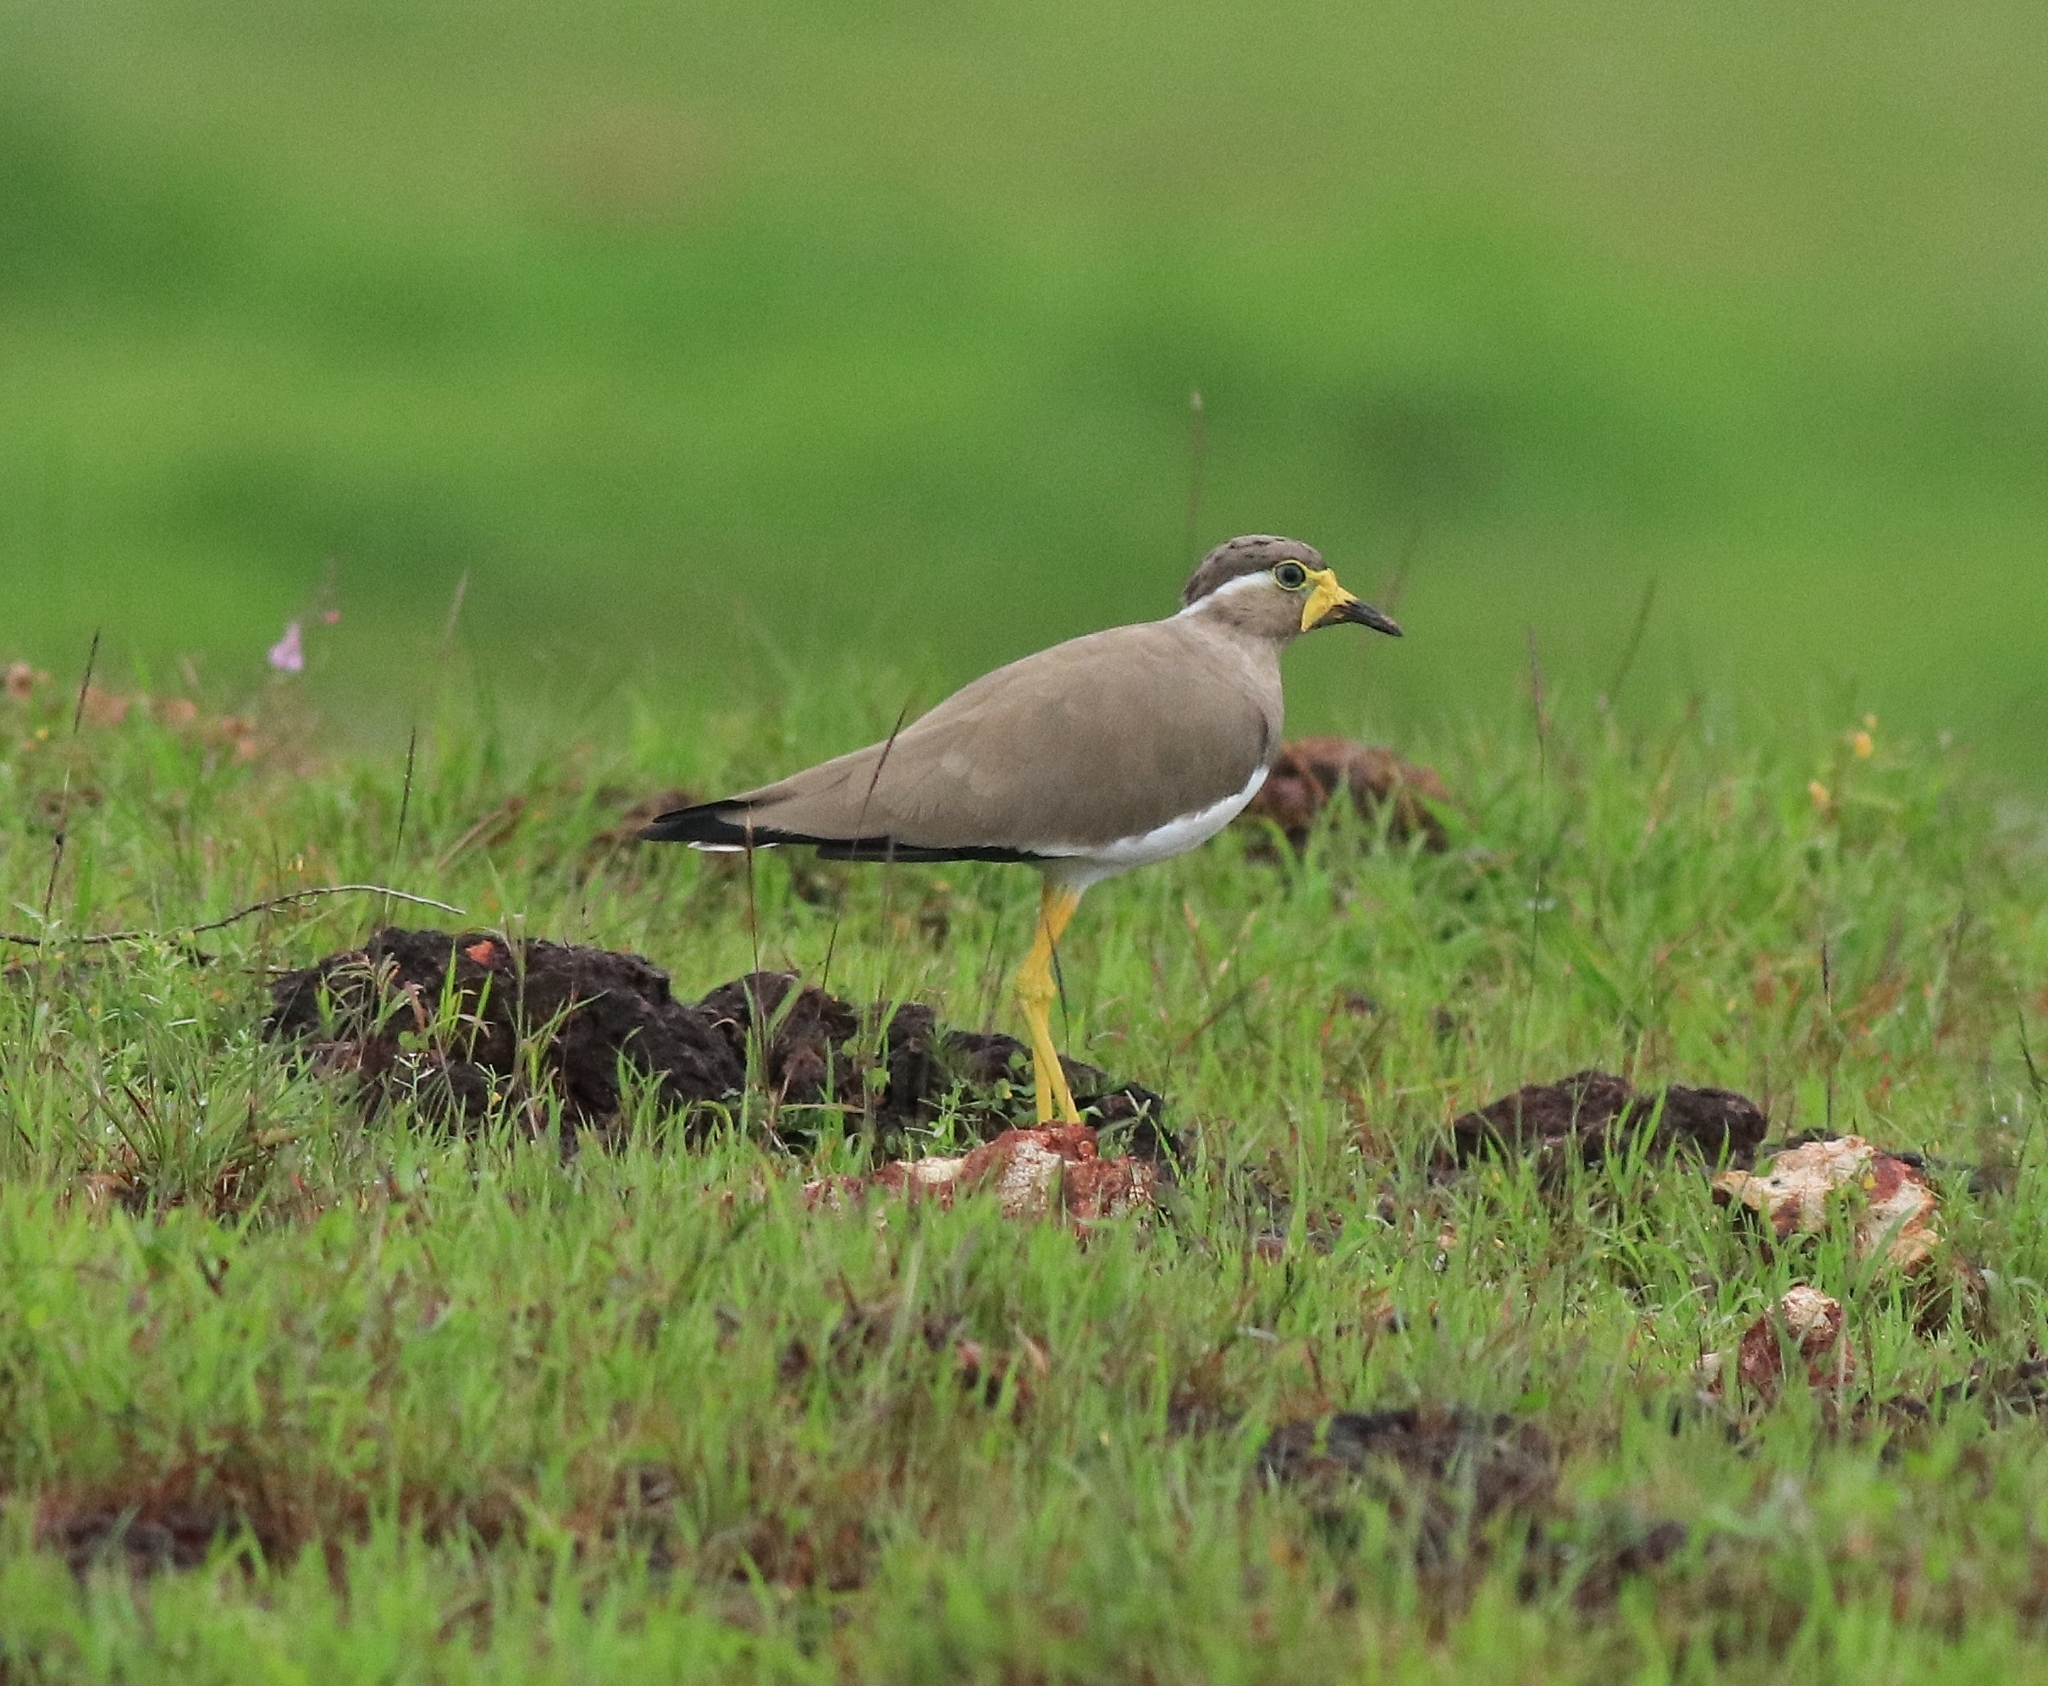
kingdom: Animalia
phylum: Chordata
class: Aves
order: Charadriiformes
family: Charadriidae
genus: Vanellus
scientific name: Vanellus malabaricus
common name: Yellow-wattled lapwing
